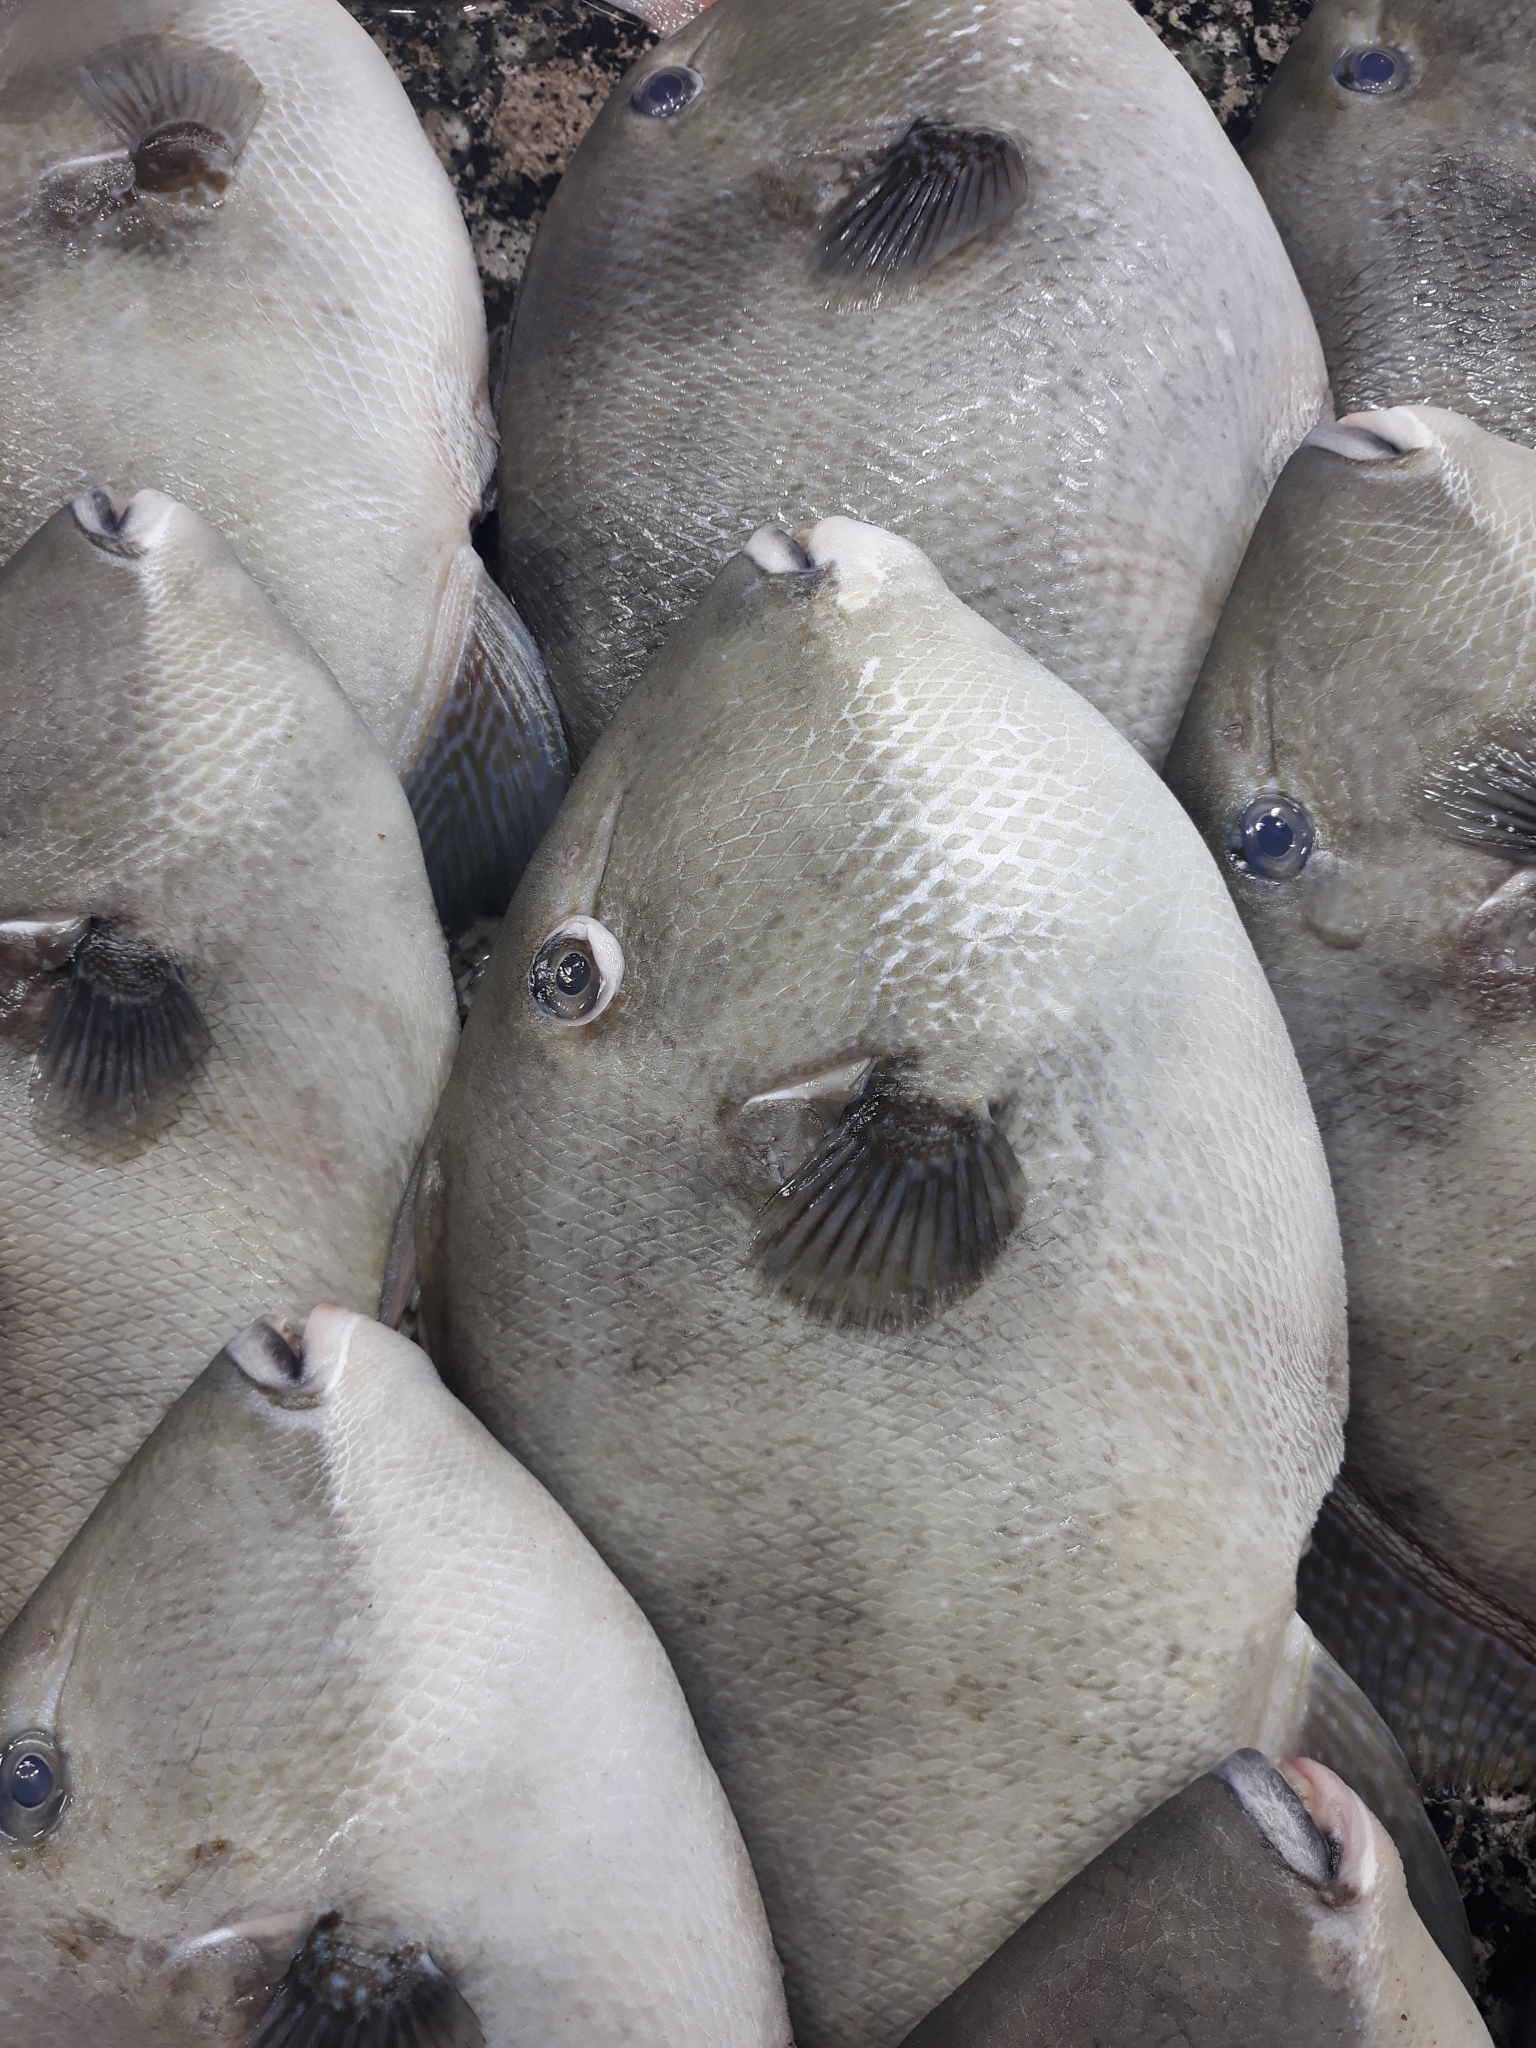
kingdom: Animalia
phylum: Chordata
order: Tetraodontiformes
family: Balistidae
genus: Balistes
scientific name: Balistes capriscus
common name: Grey triggerfish
